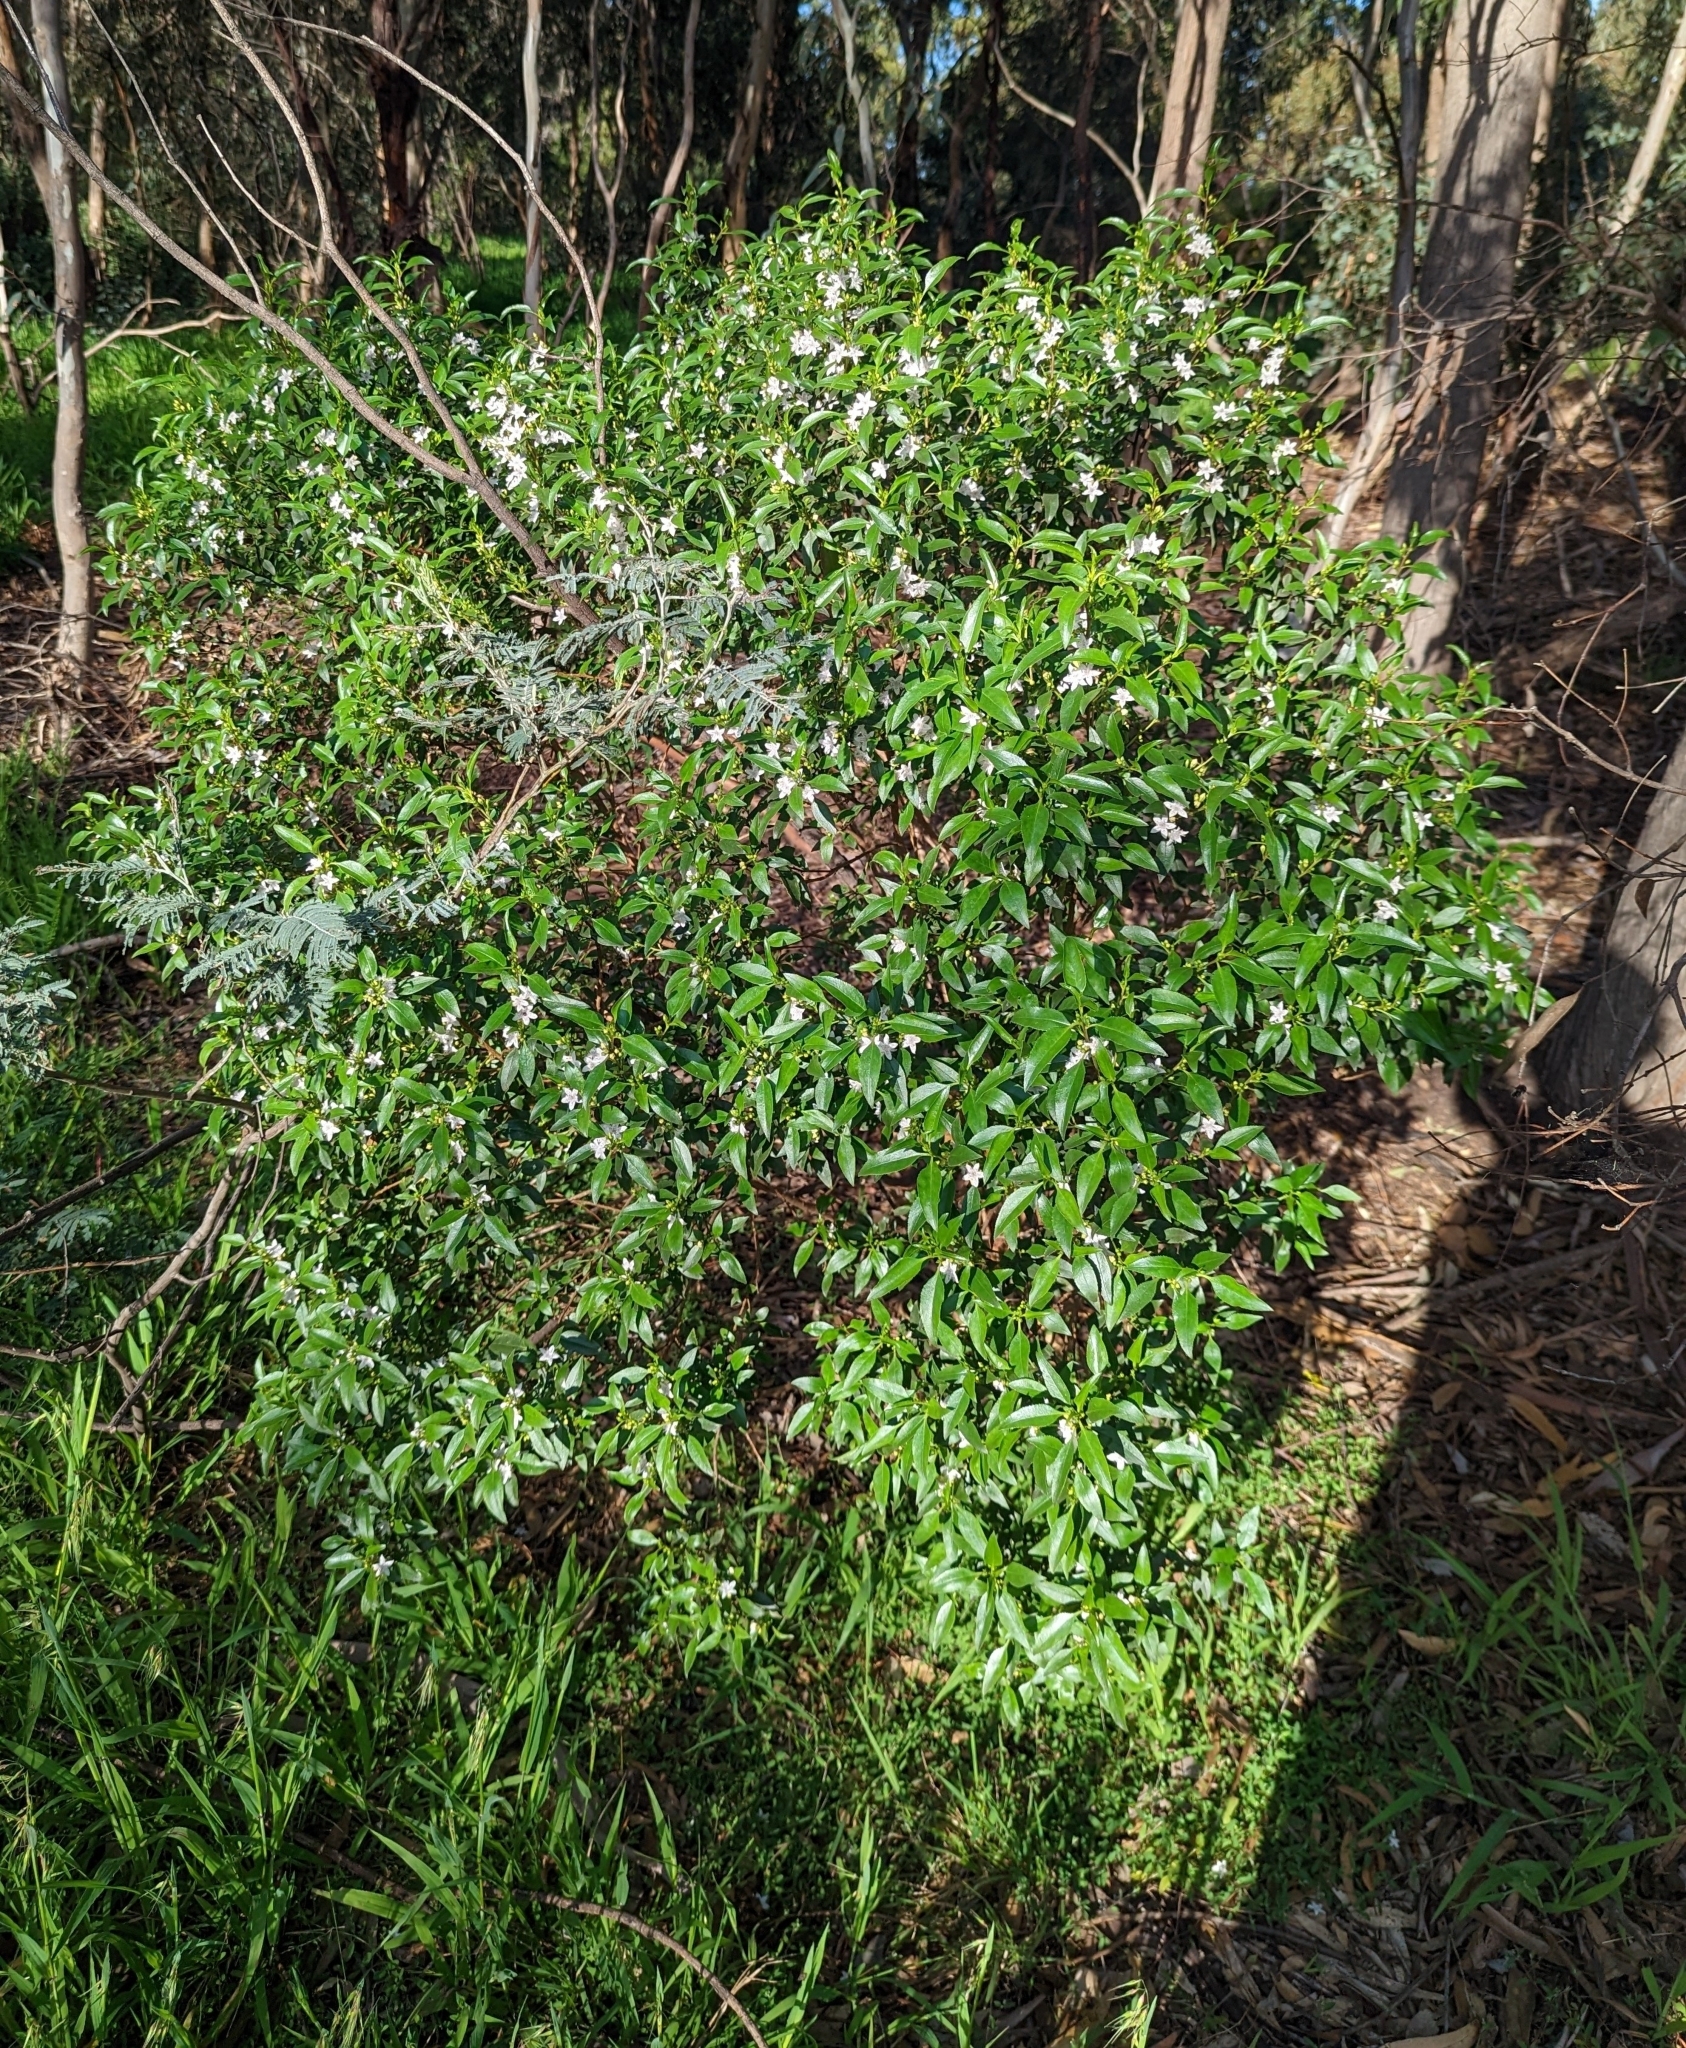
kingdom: Plantae
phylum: Tracheophyta
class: Magnoliopsida
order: Lamiales
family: Scrophulariaceae
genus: Myoporum
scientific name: Myoporum petiolatum
